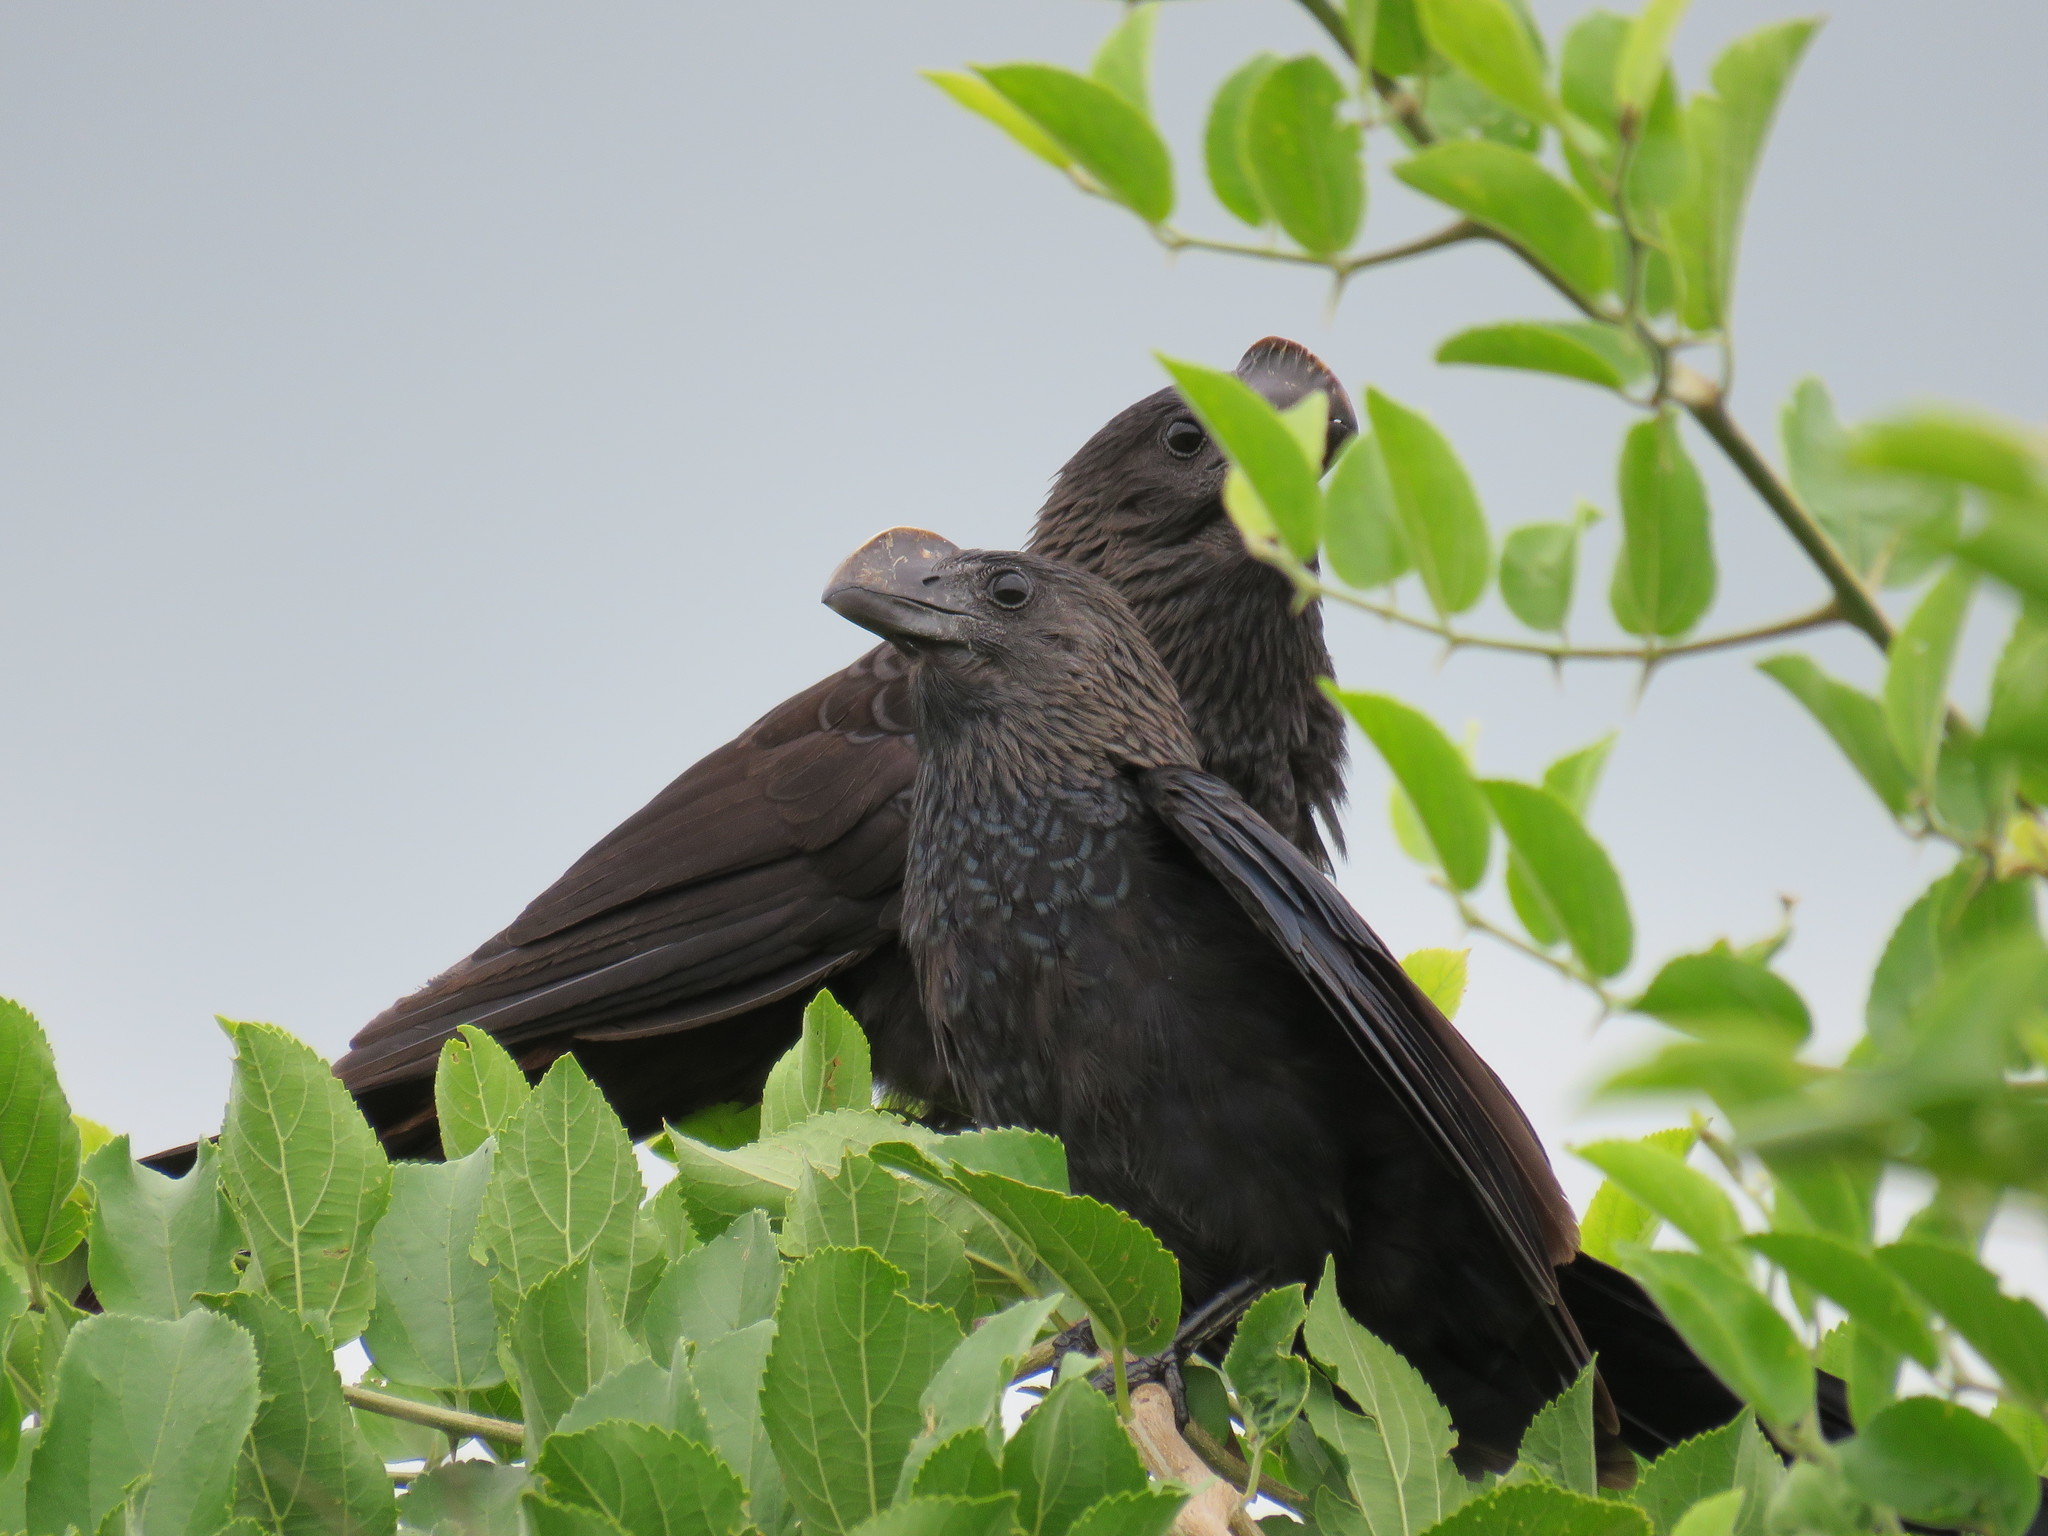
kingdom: Animalia
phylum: Chordata
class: Aves
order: Cuculiformes
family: Cuculidae
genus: Crotophaga
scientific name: Crotophaga ani
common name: Smooth-billed ani
